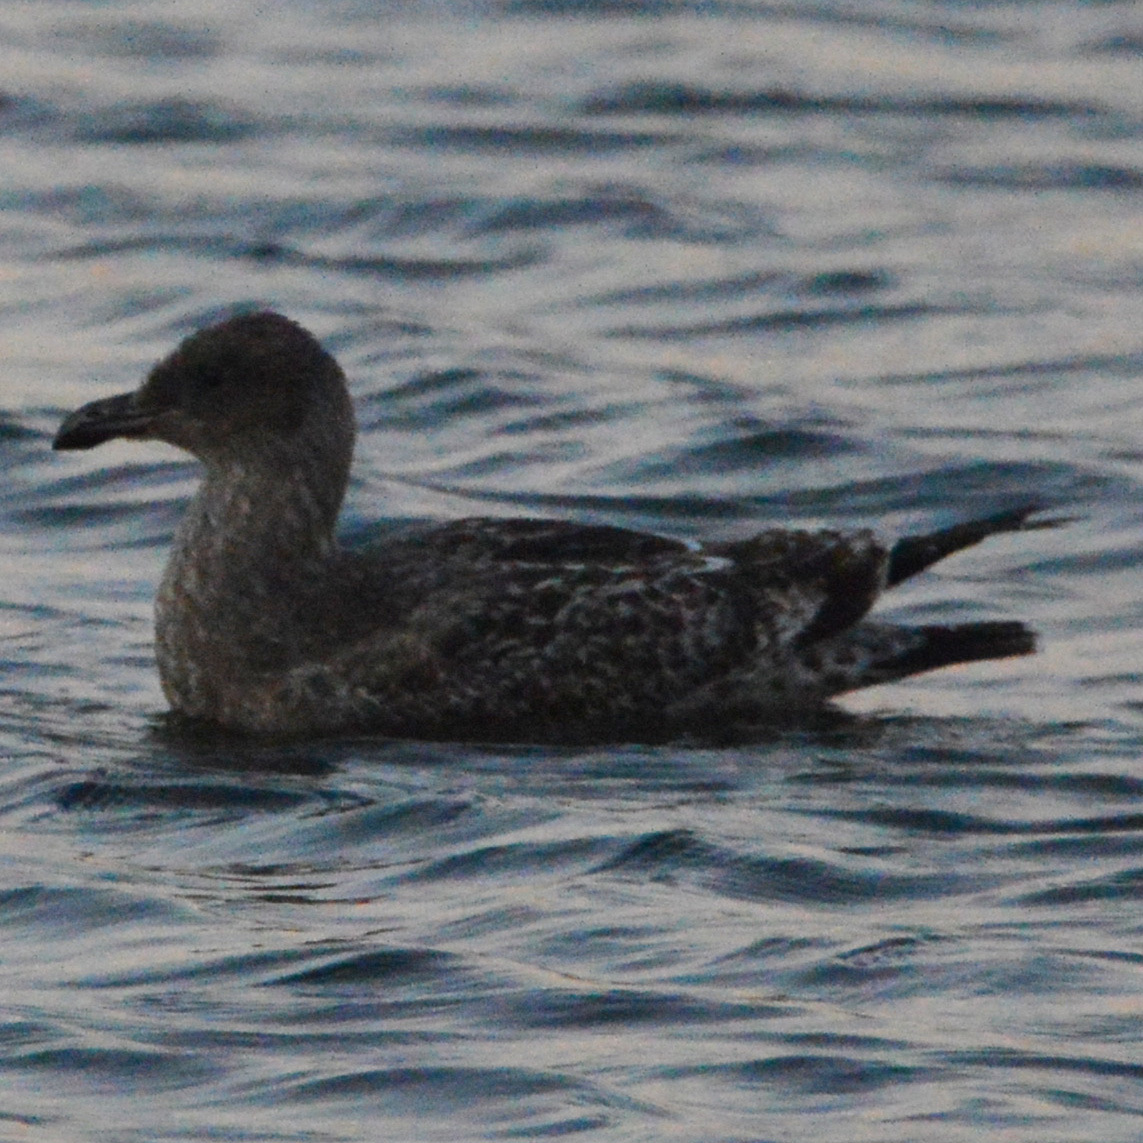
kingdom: Animalia
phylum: Chordata
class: Aves
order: Charadriiformes
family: Laridae
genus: Larus
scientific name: Larus occidentalis
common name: Western gull
